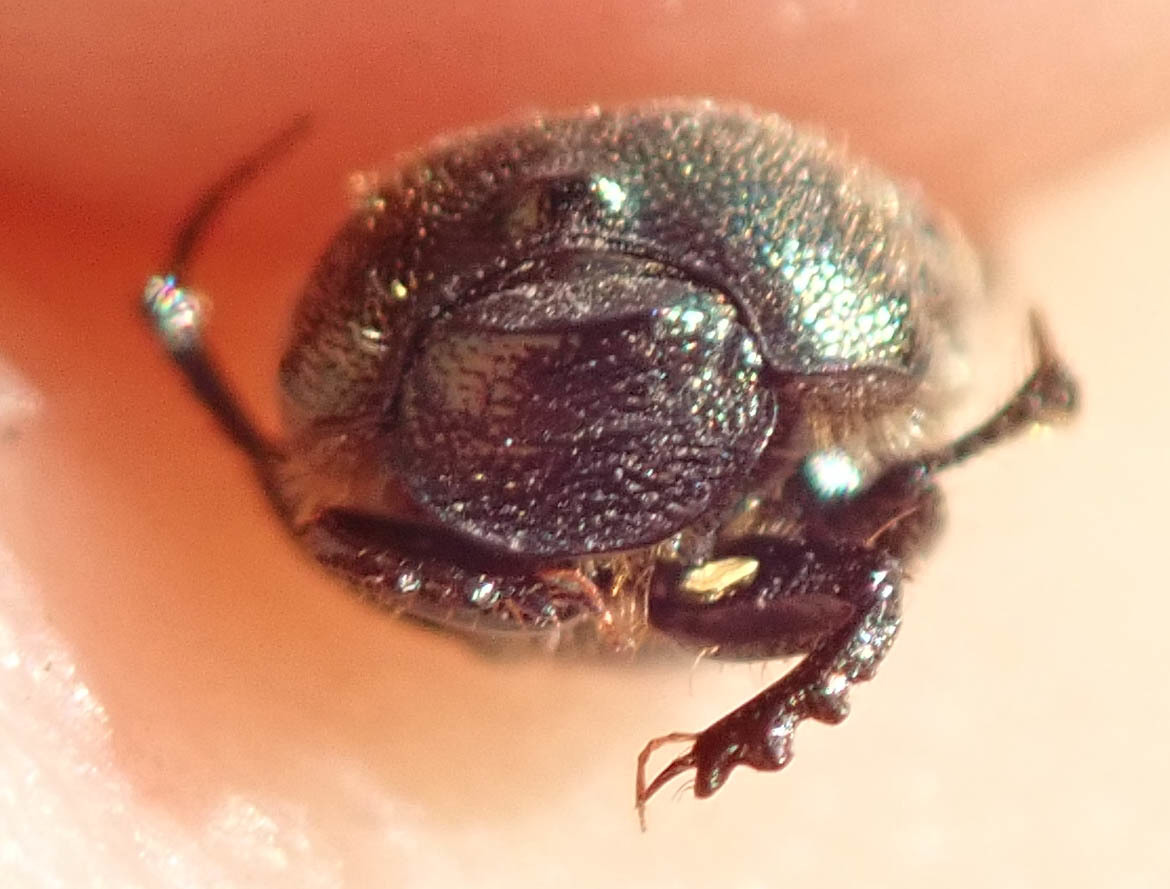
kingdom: Animalia
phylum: Arthropoda
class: Insecta
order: Coleoptera
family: Scarabaeidae
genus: Onthophagus
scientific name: Onthophagus aeruginosus
